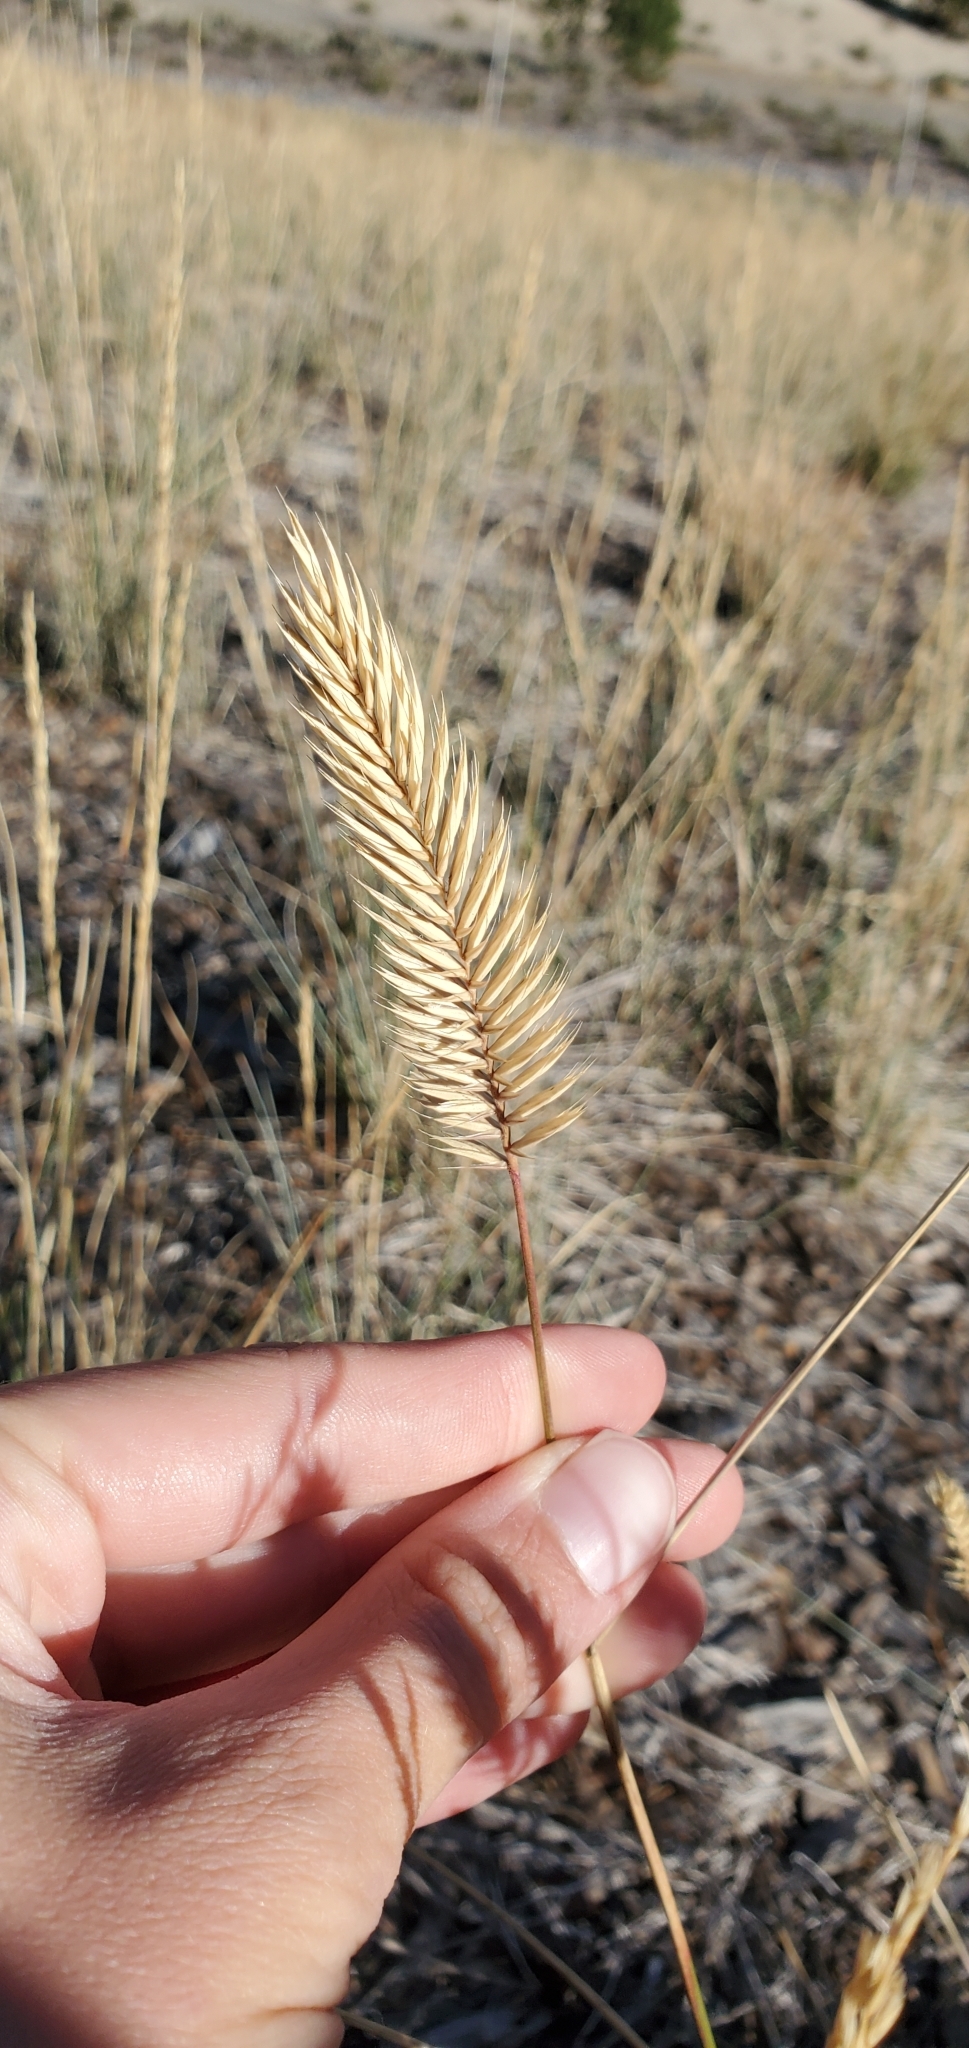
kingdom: Plantae
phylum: Tracheophyta
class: Liliopsida
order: Poales
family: Poaceae
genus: Agropyron
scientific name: Agropyron cristatum
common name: Crested wheatgrass
